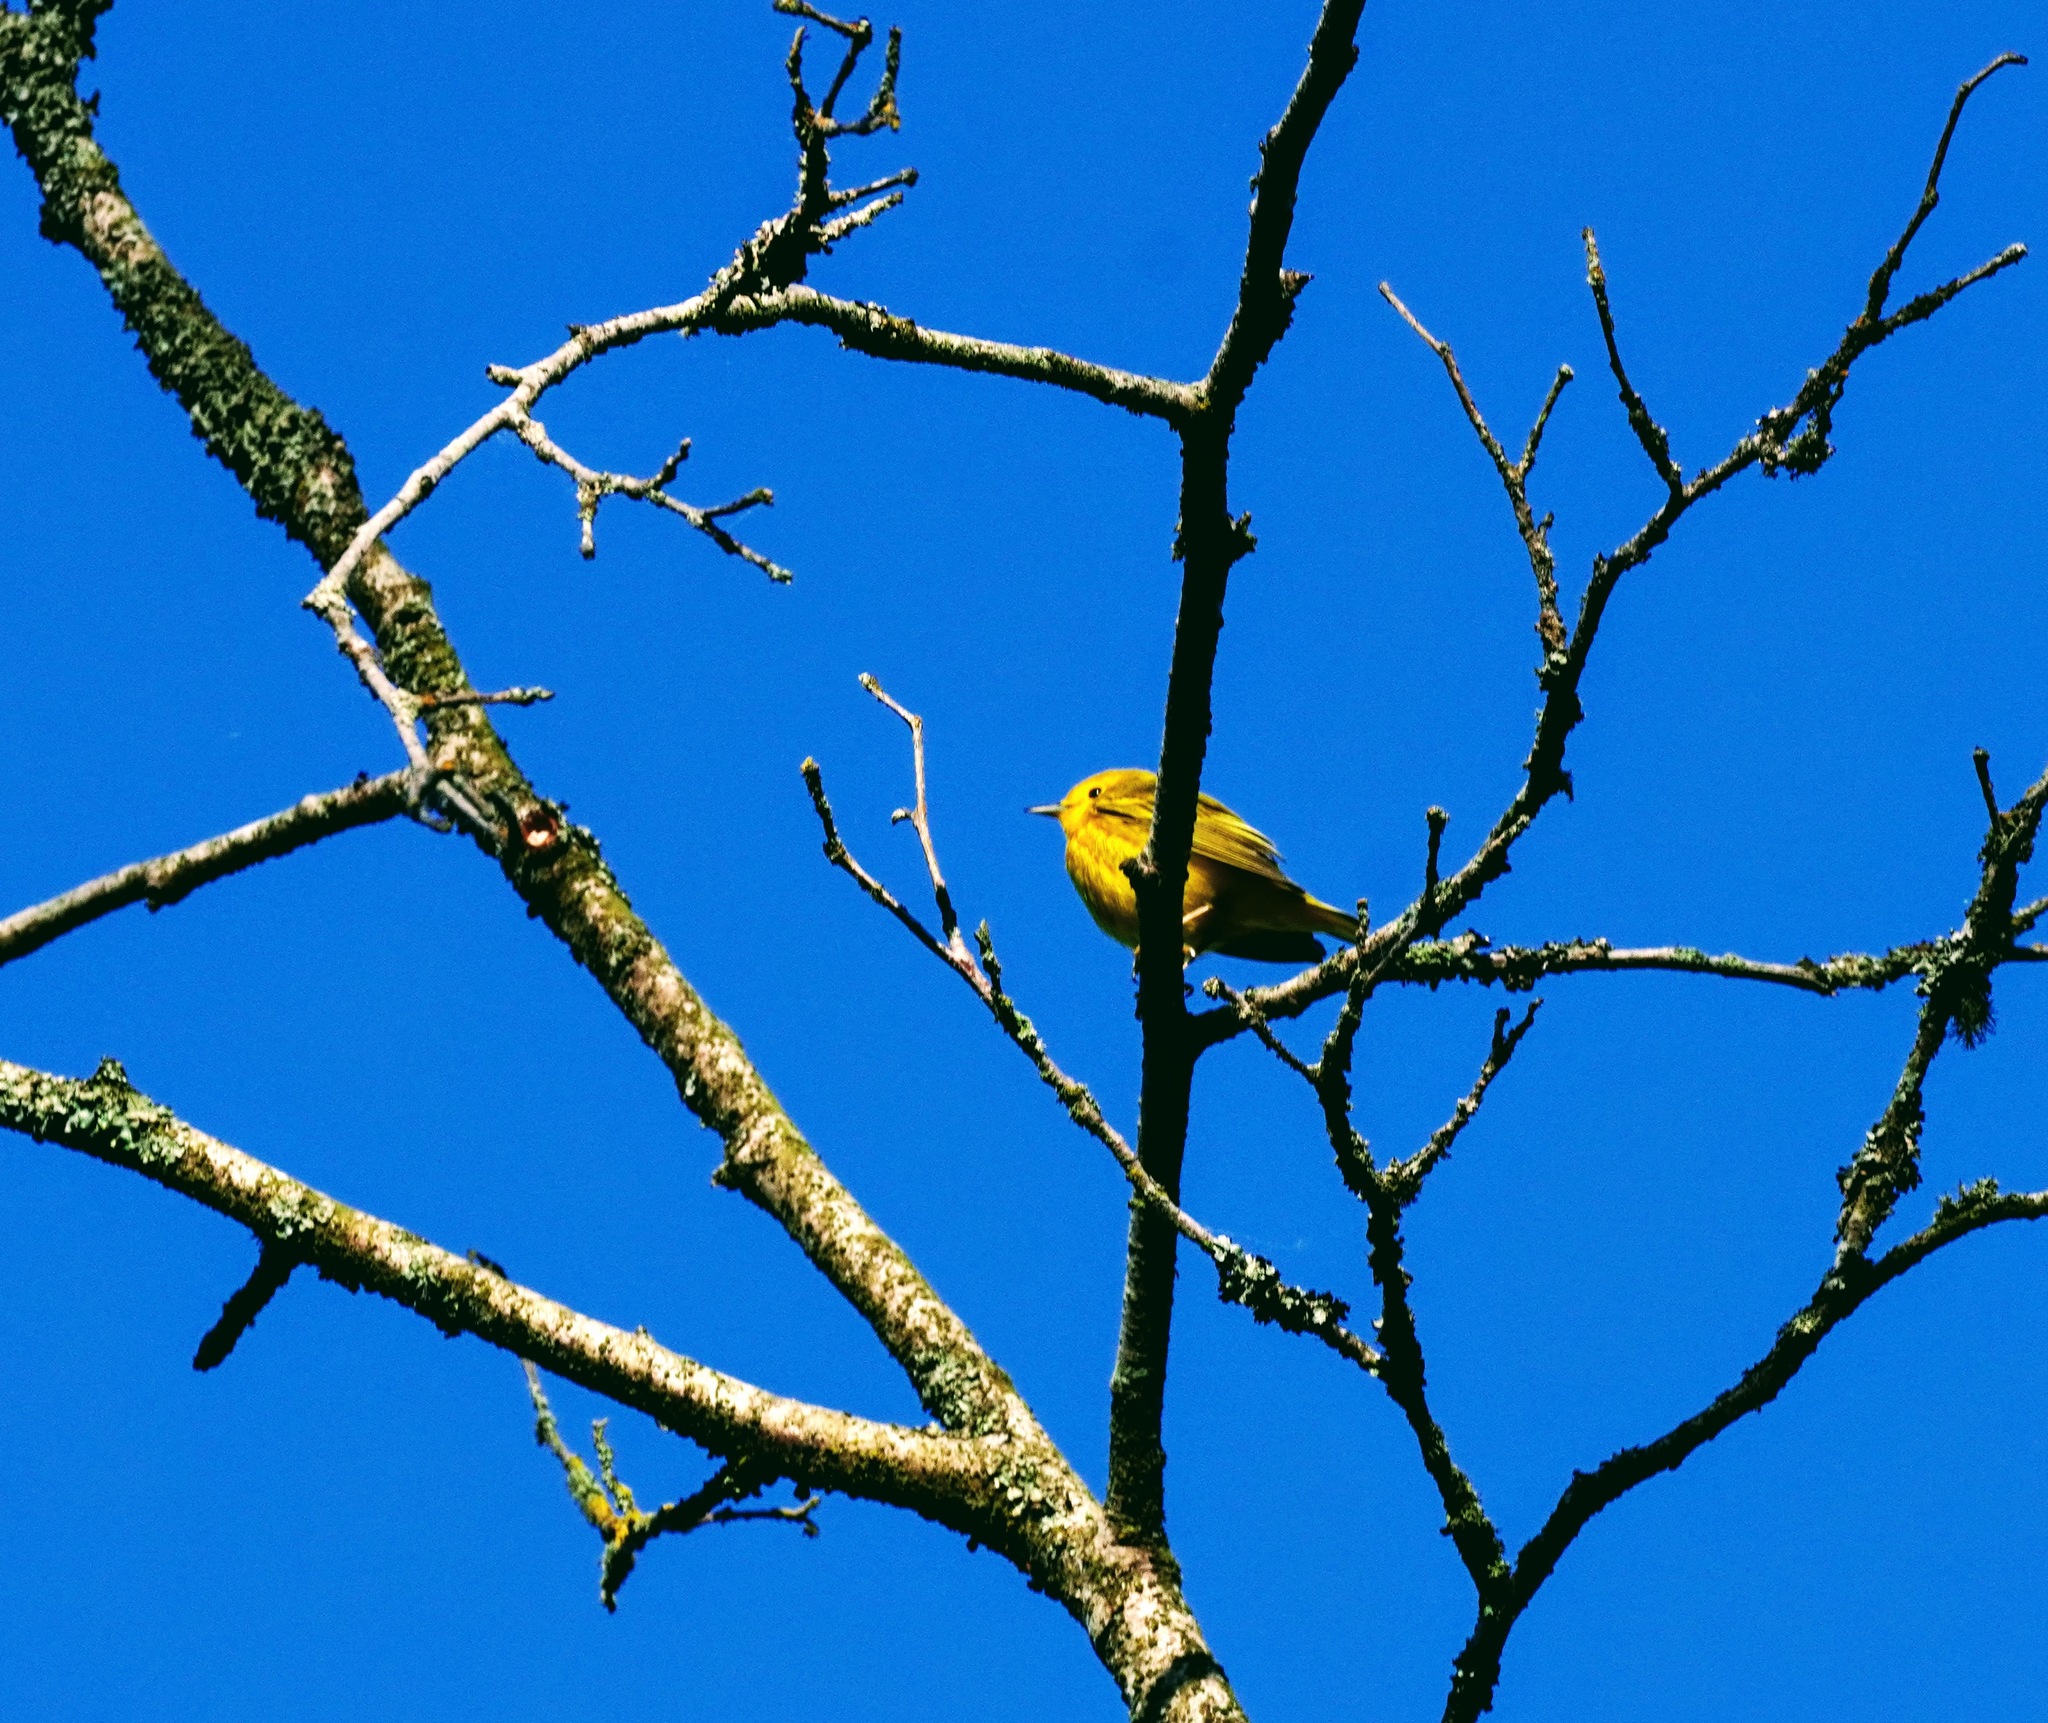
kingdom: Animalia
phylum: Chordata
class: Aves
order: Passeriformes
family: Parulidae
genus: Setophaga
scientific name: Setophaga petechia
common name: Yellow warbler
